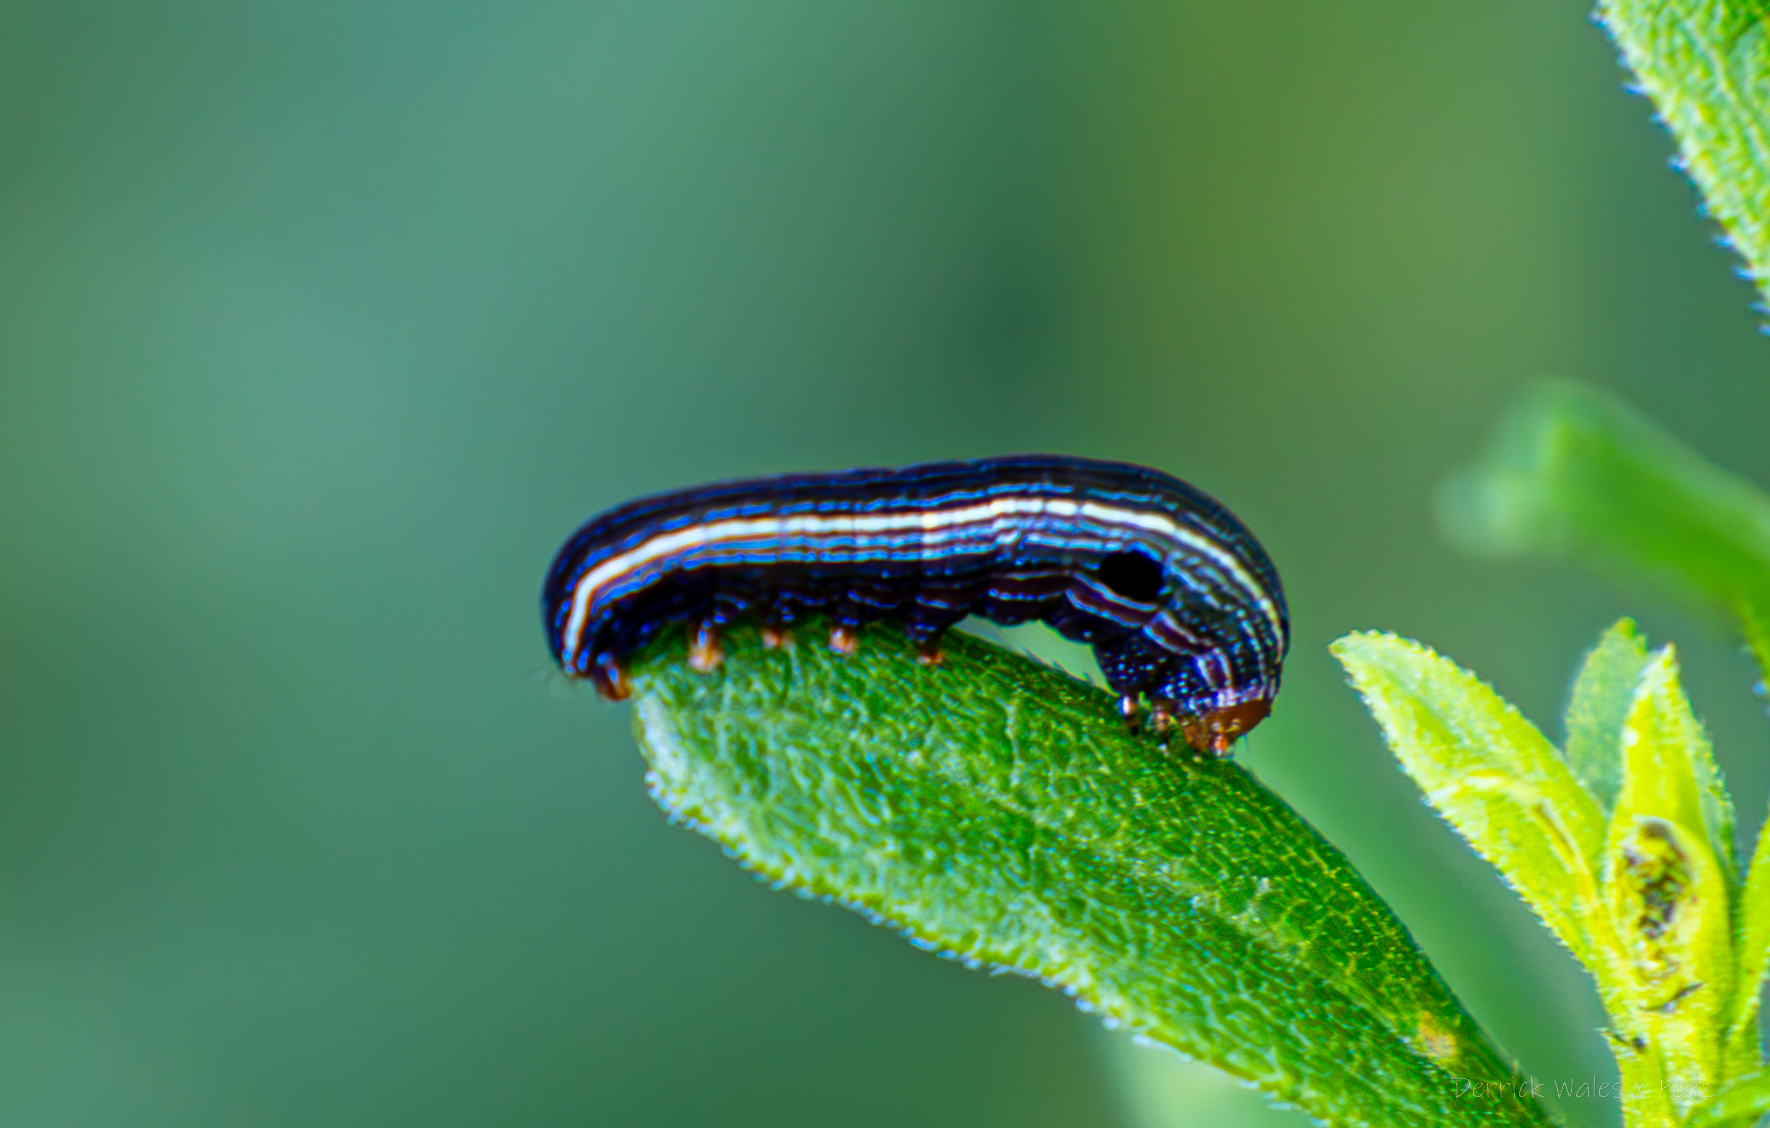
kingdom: Animalia
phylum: Arthropoda
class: Insecta
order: Lepidoptera
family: Noctuidae
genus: Spodoptera
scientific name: Spodoptera ornithogalli
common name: Yellow-striped armyworm
